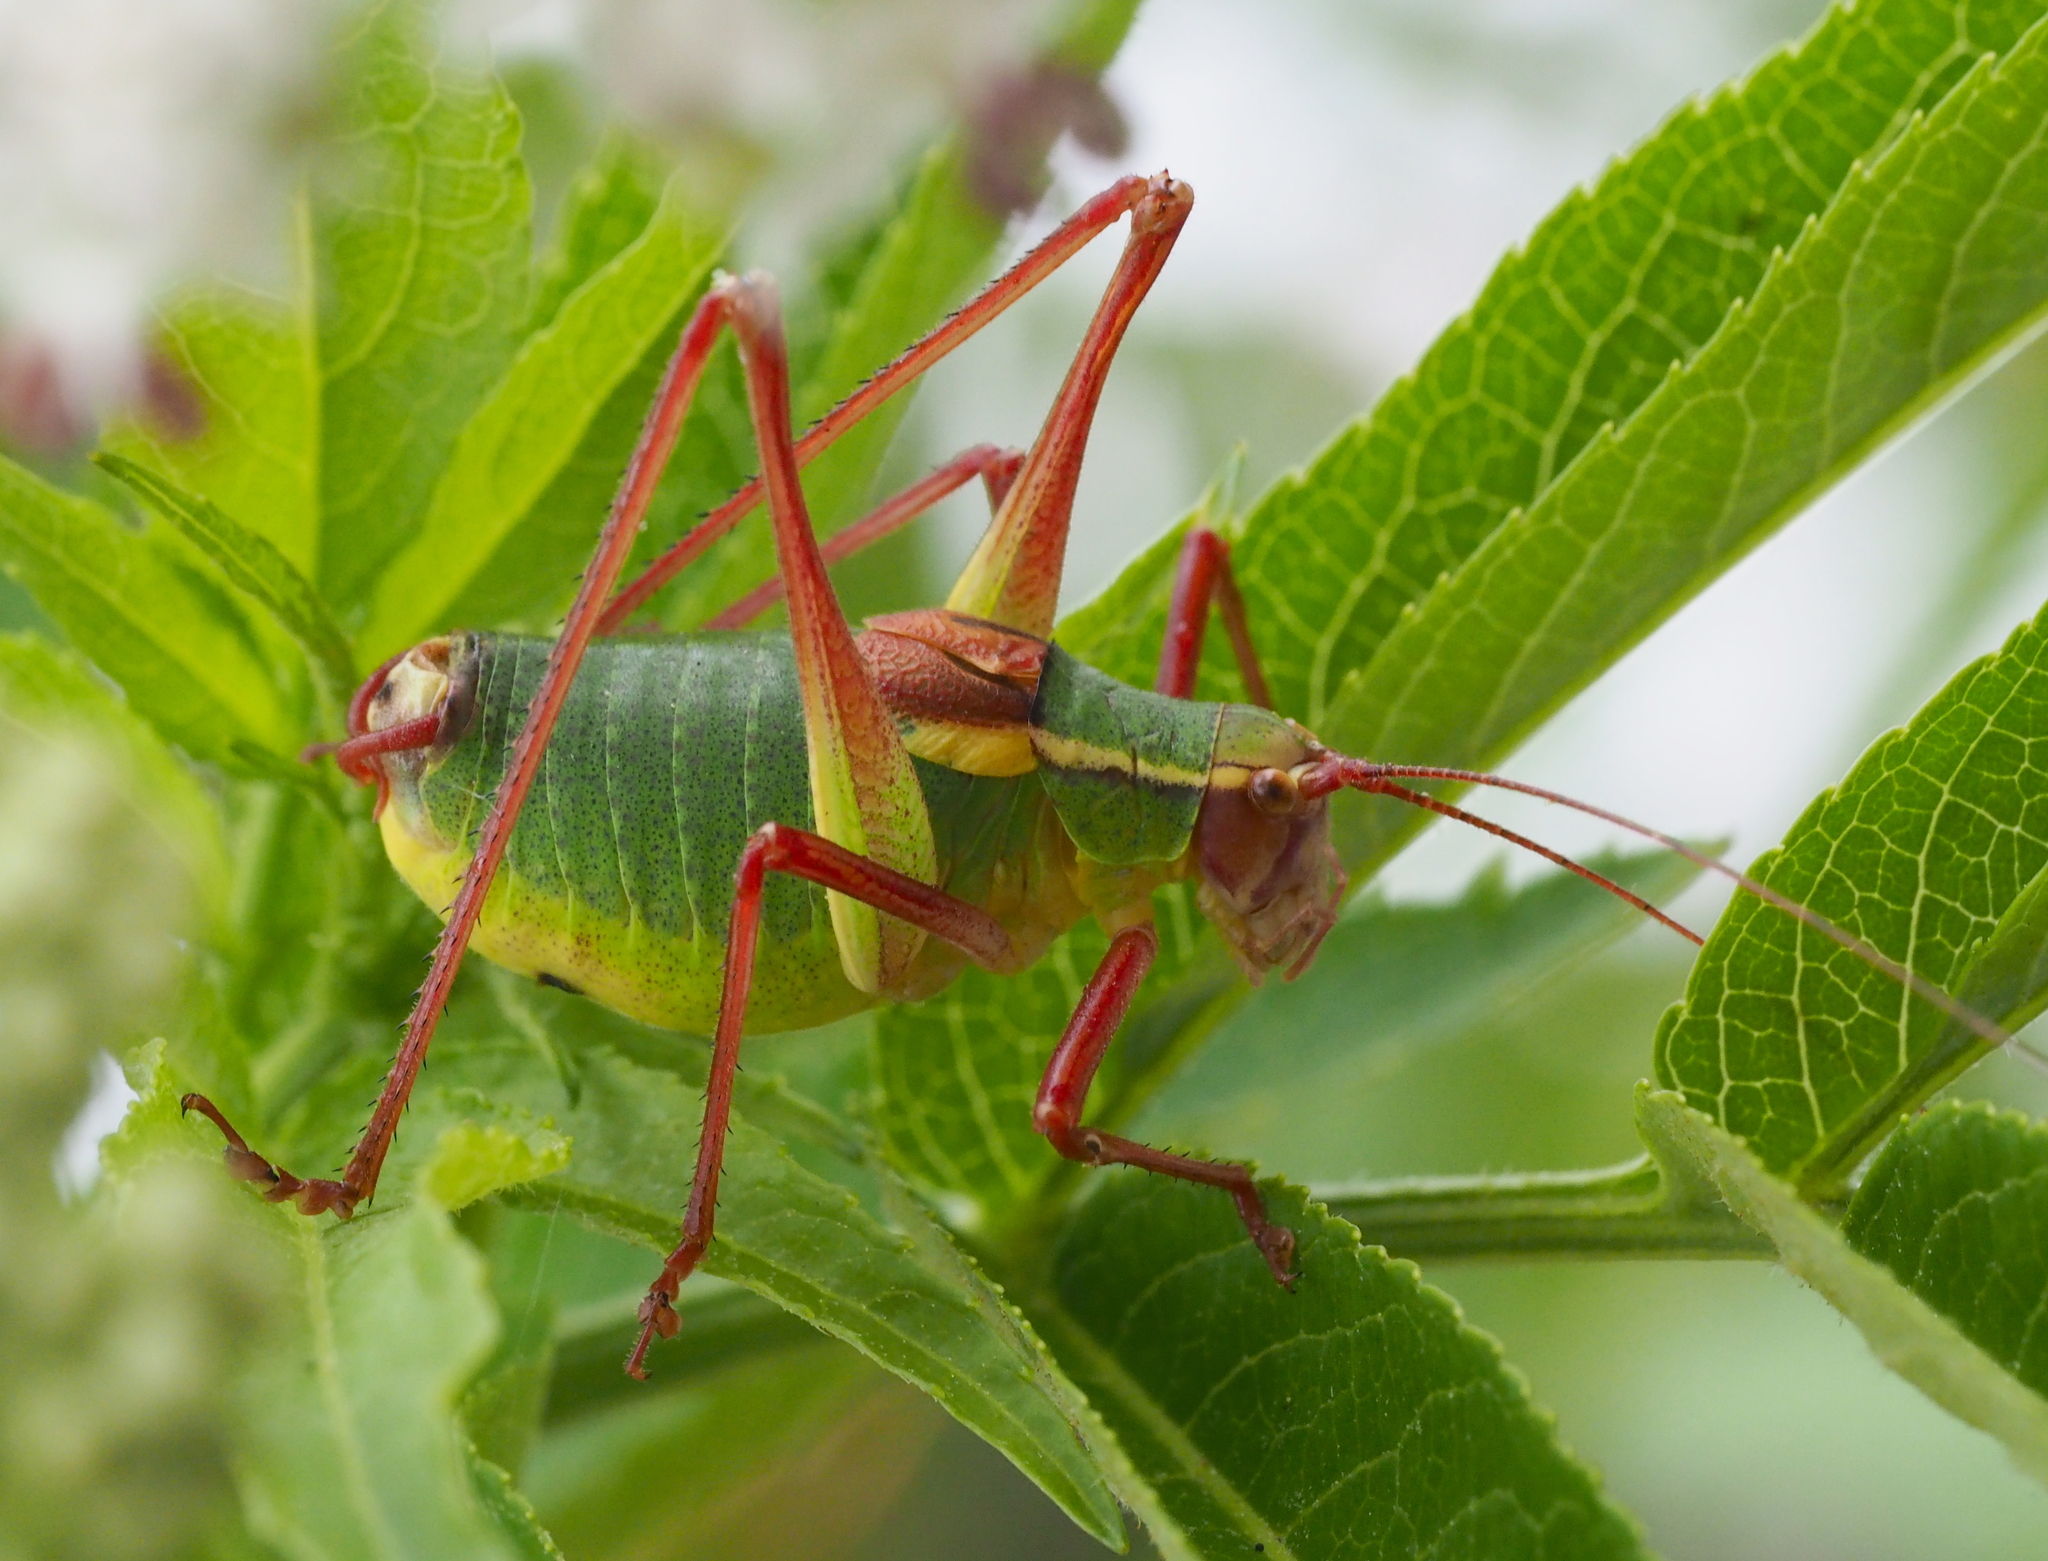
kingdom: Animalia
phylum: Arthropoda
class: Insecta
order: Orthoptera
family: Tettigoniidae
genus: Barbitistes
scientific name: Barbitistes serricauda
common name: Saw-tailed bush-cricket
